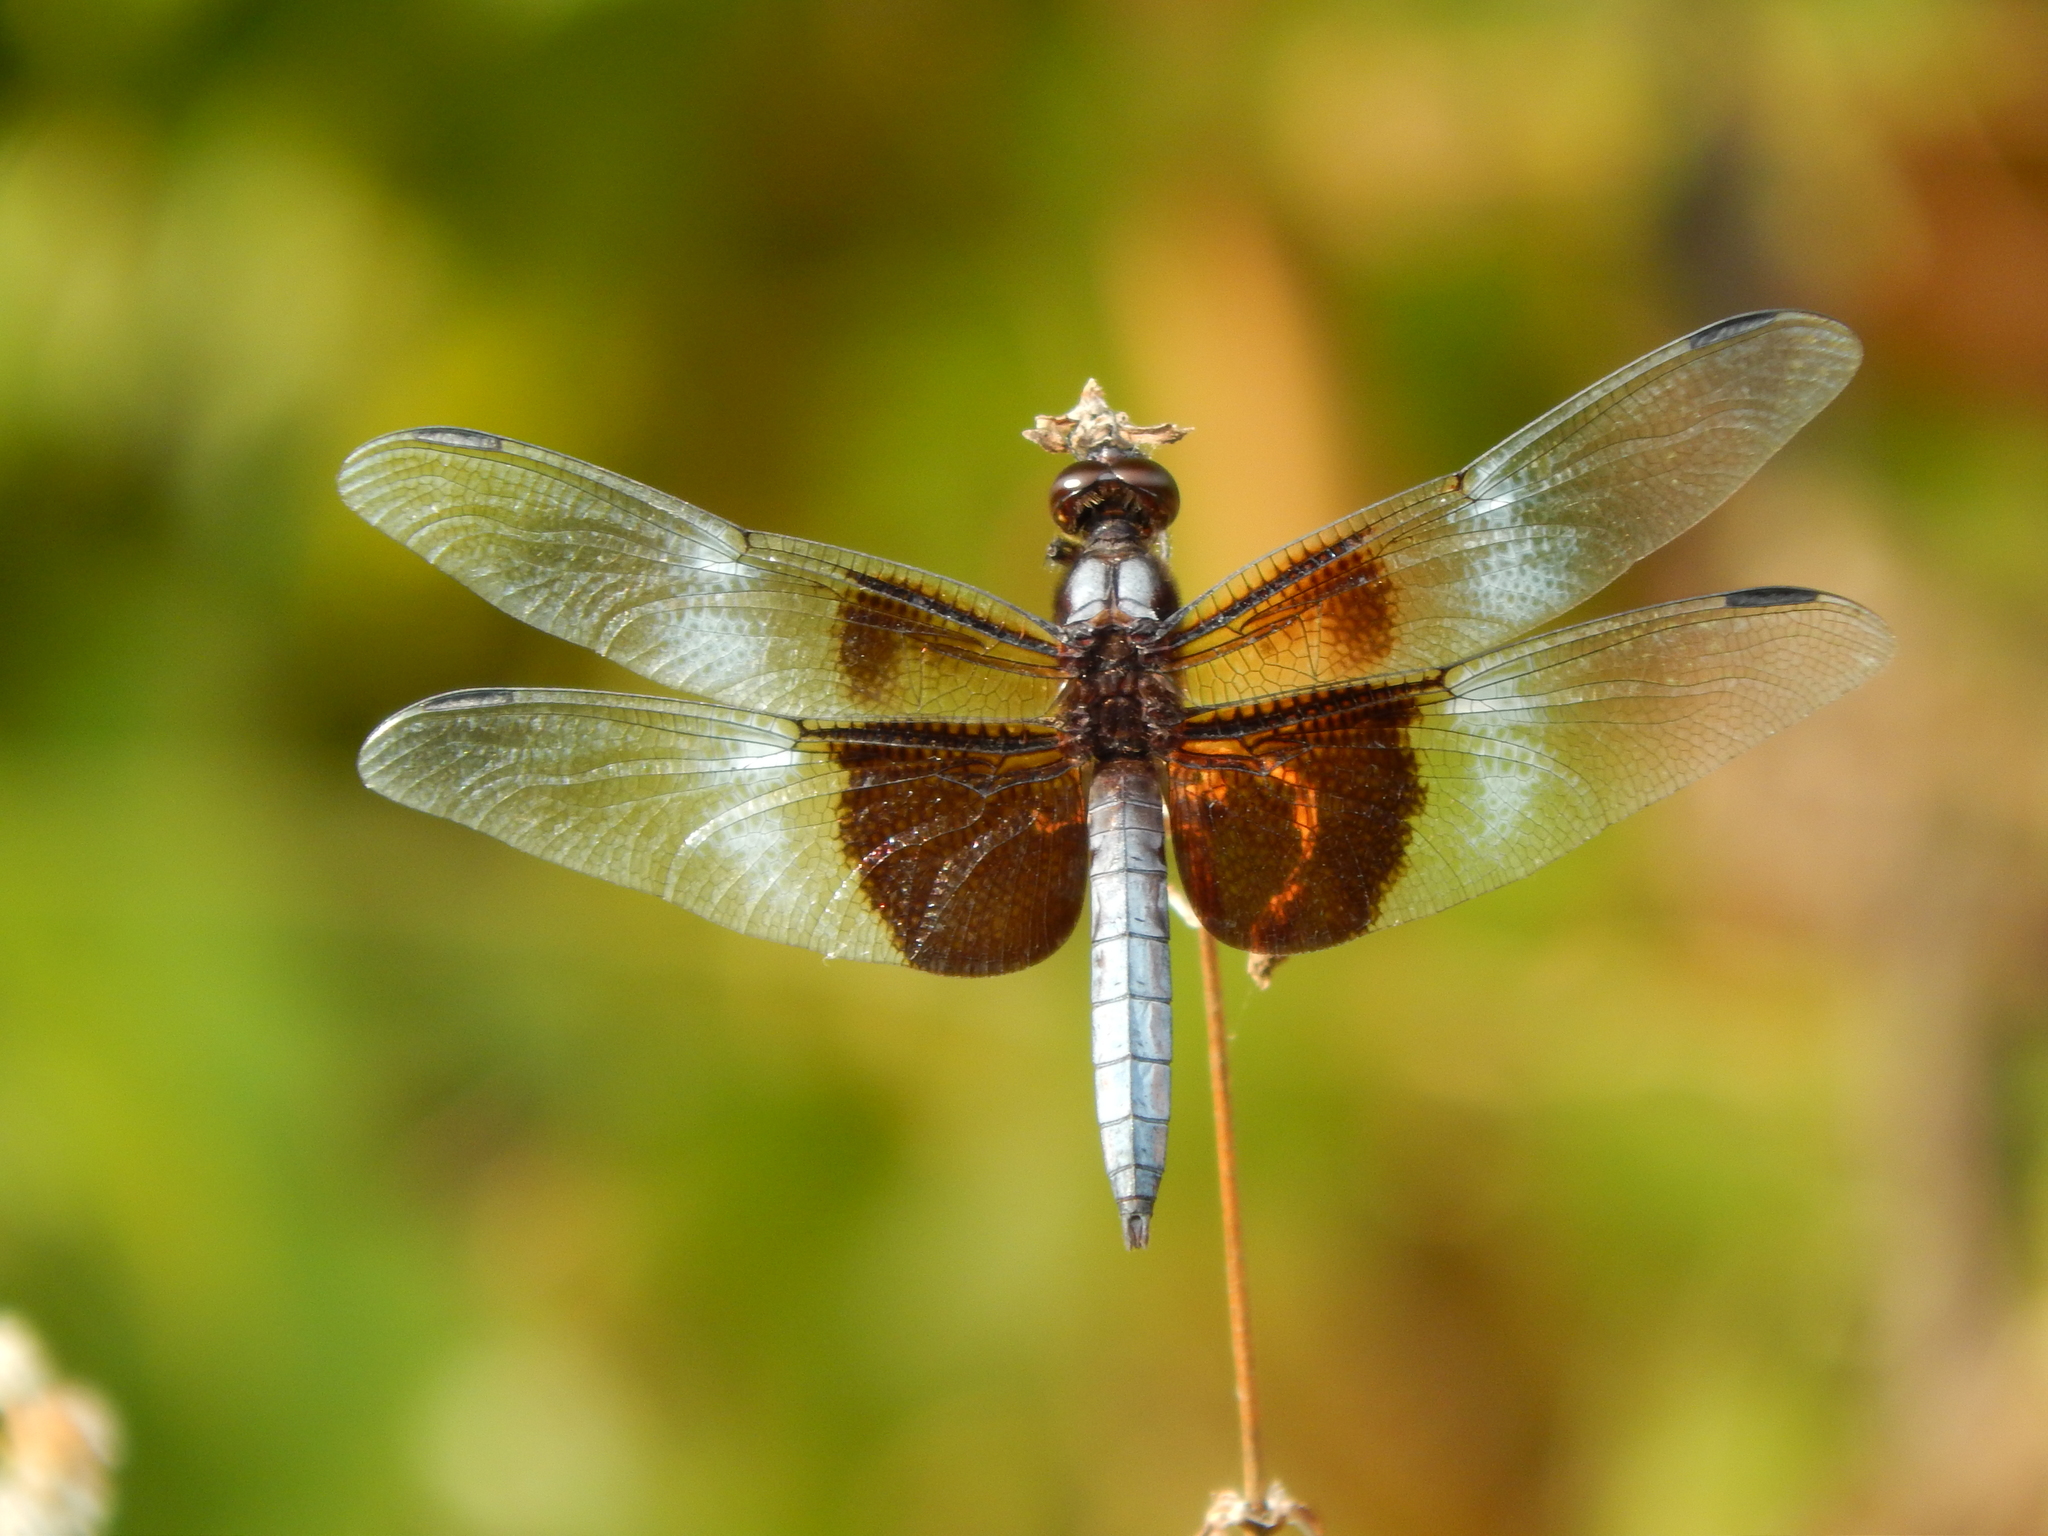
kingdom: Animalia
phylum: Arthropoda
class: Insecta
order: Odonata
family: Libellulidae
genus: Libellula
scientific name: Libellula luctuosa
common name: Widow skimmer
